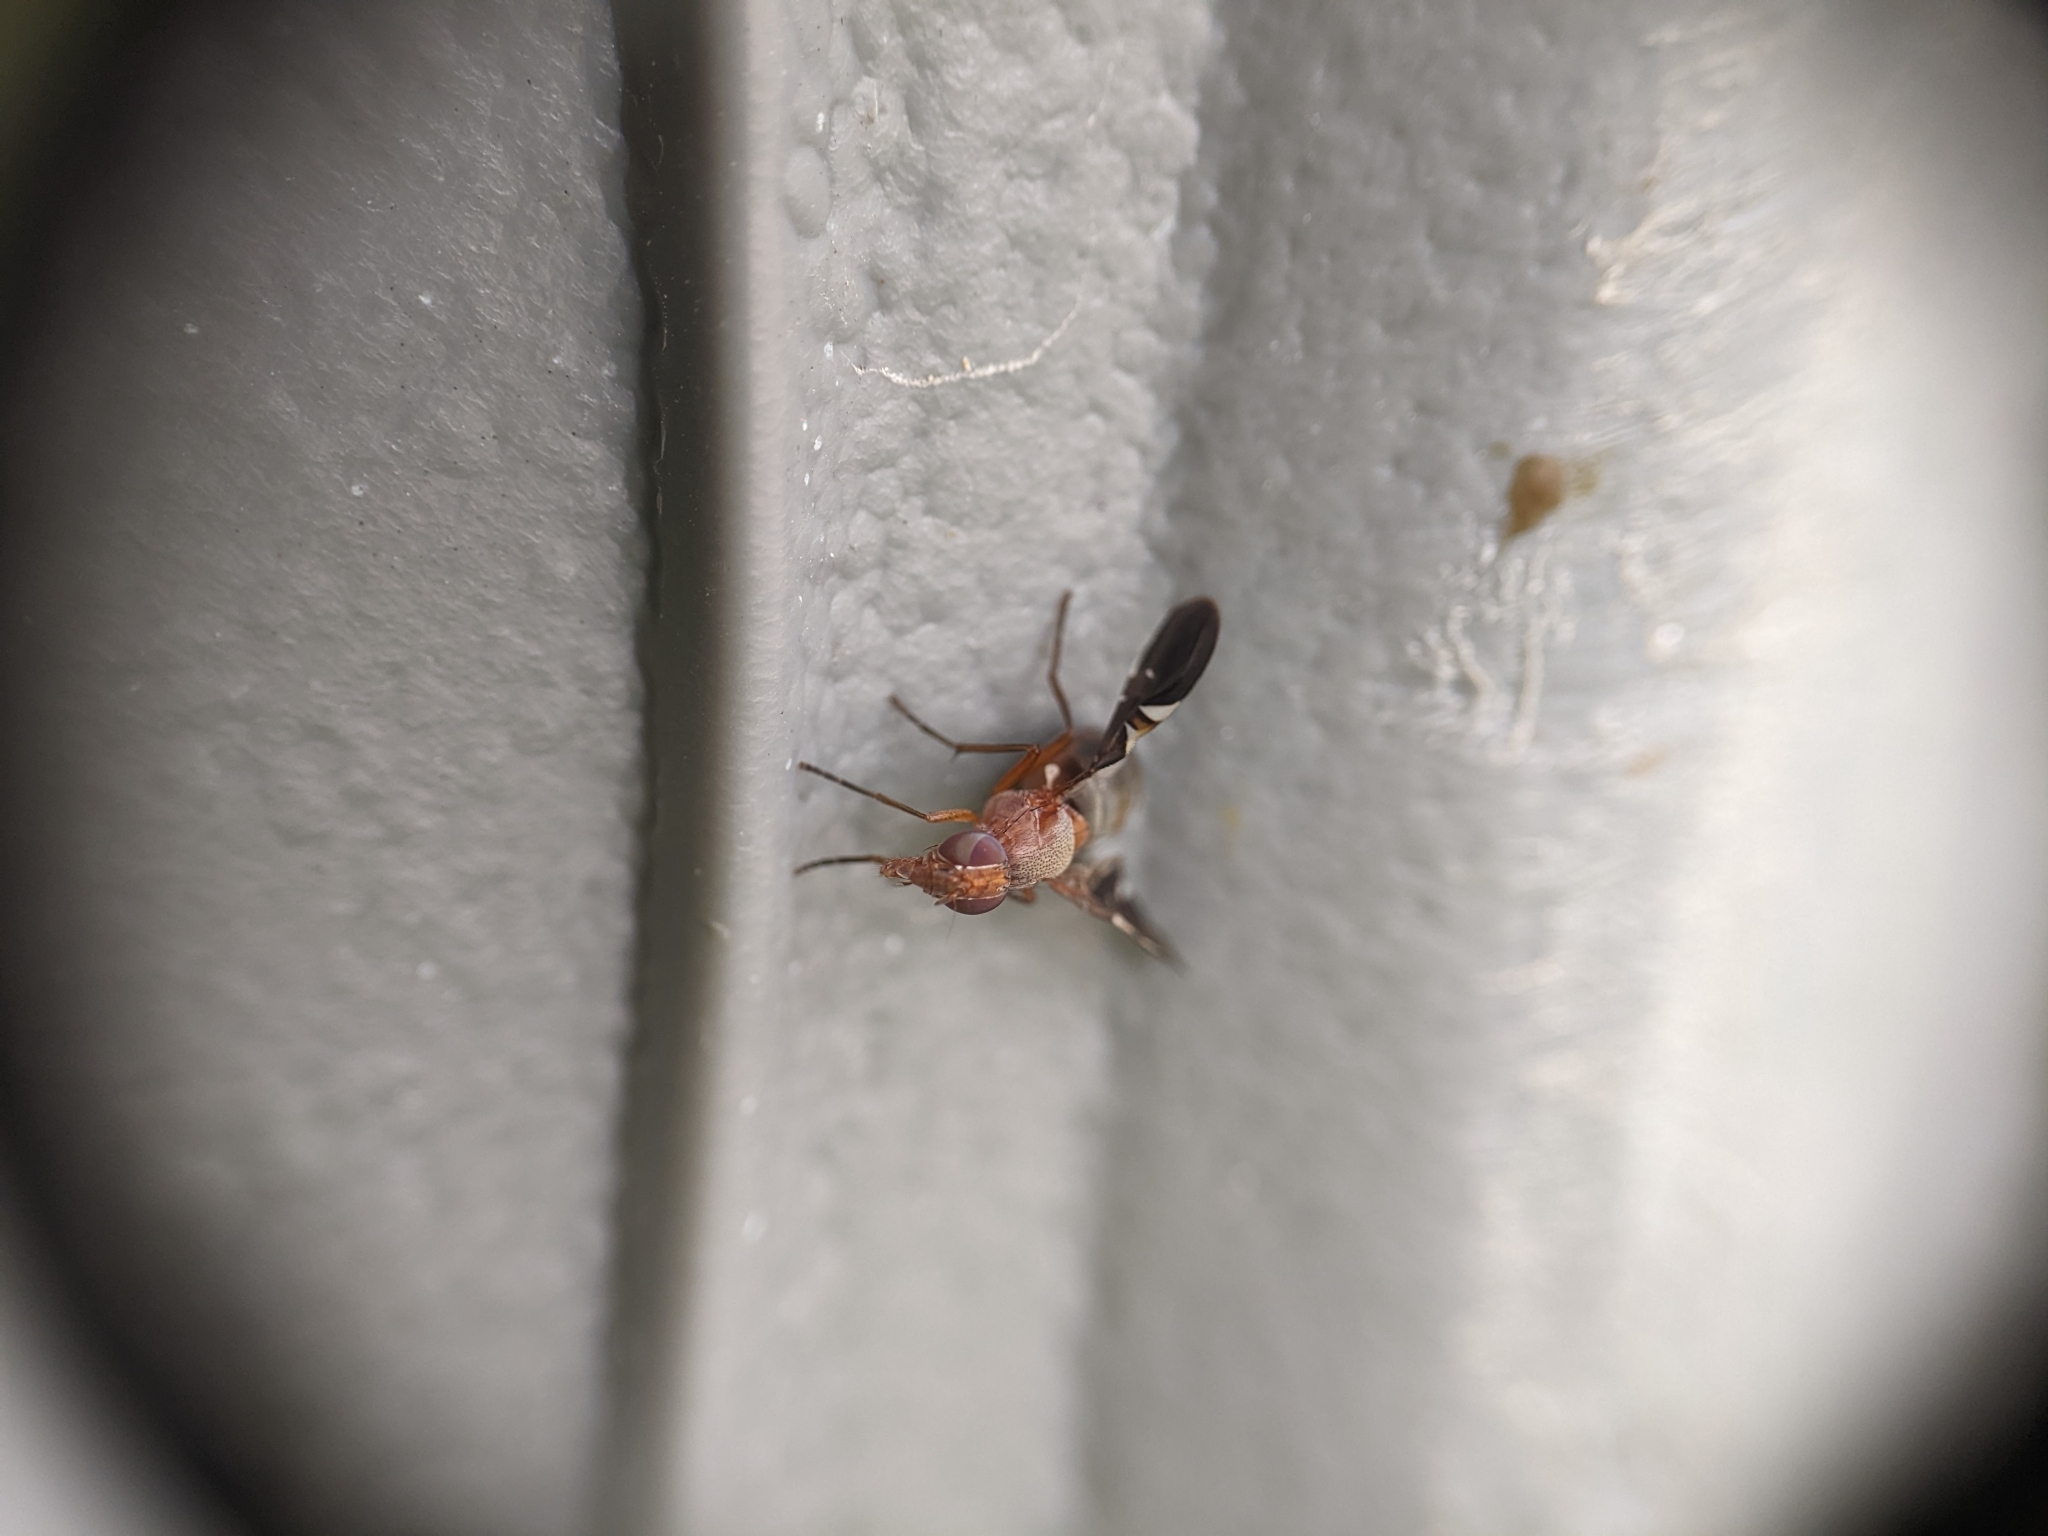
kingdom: Animalia
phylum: Arthropoda
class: Insecta
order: Diptera
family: Ulidiidae
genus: Delphinia
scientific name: Delphinia picta
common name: Common picture-winged fly
